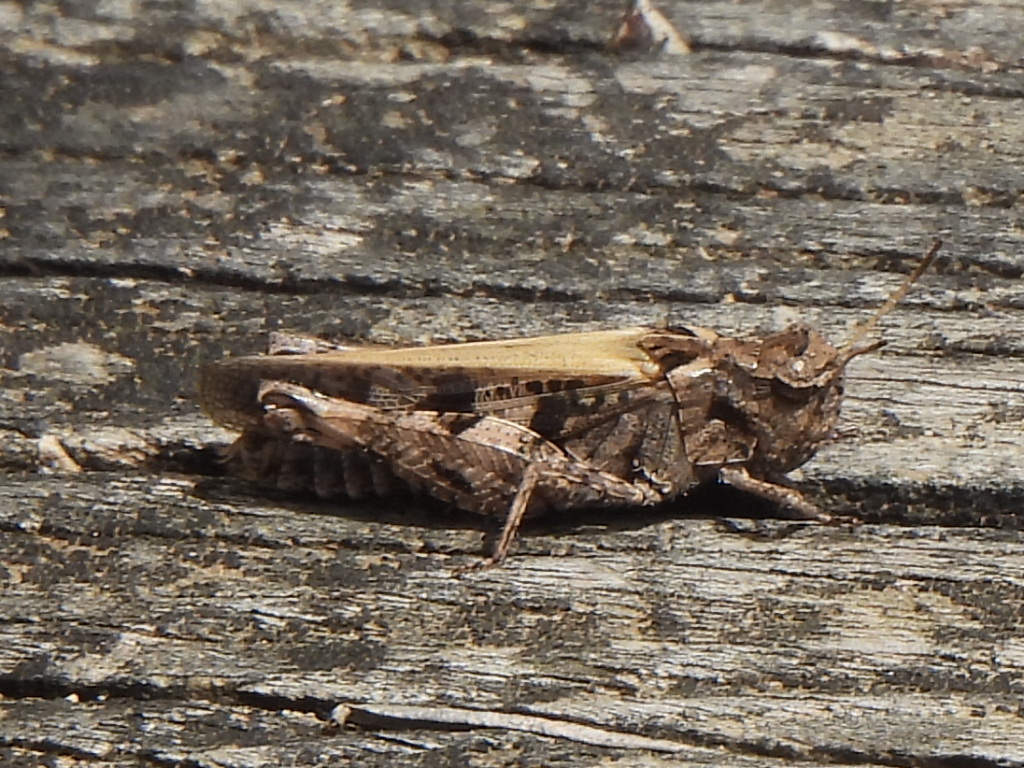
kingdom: Animalia
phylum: Arthropoda
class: Insecta
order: Orthoptera
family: Acrididae
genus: Encoptolophus
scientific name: Encoptolophus costalis
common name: Dusky grasshopper
